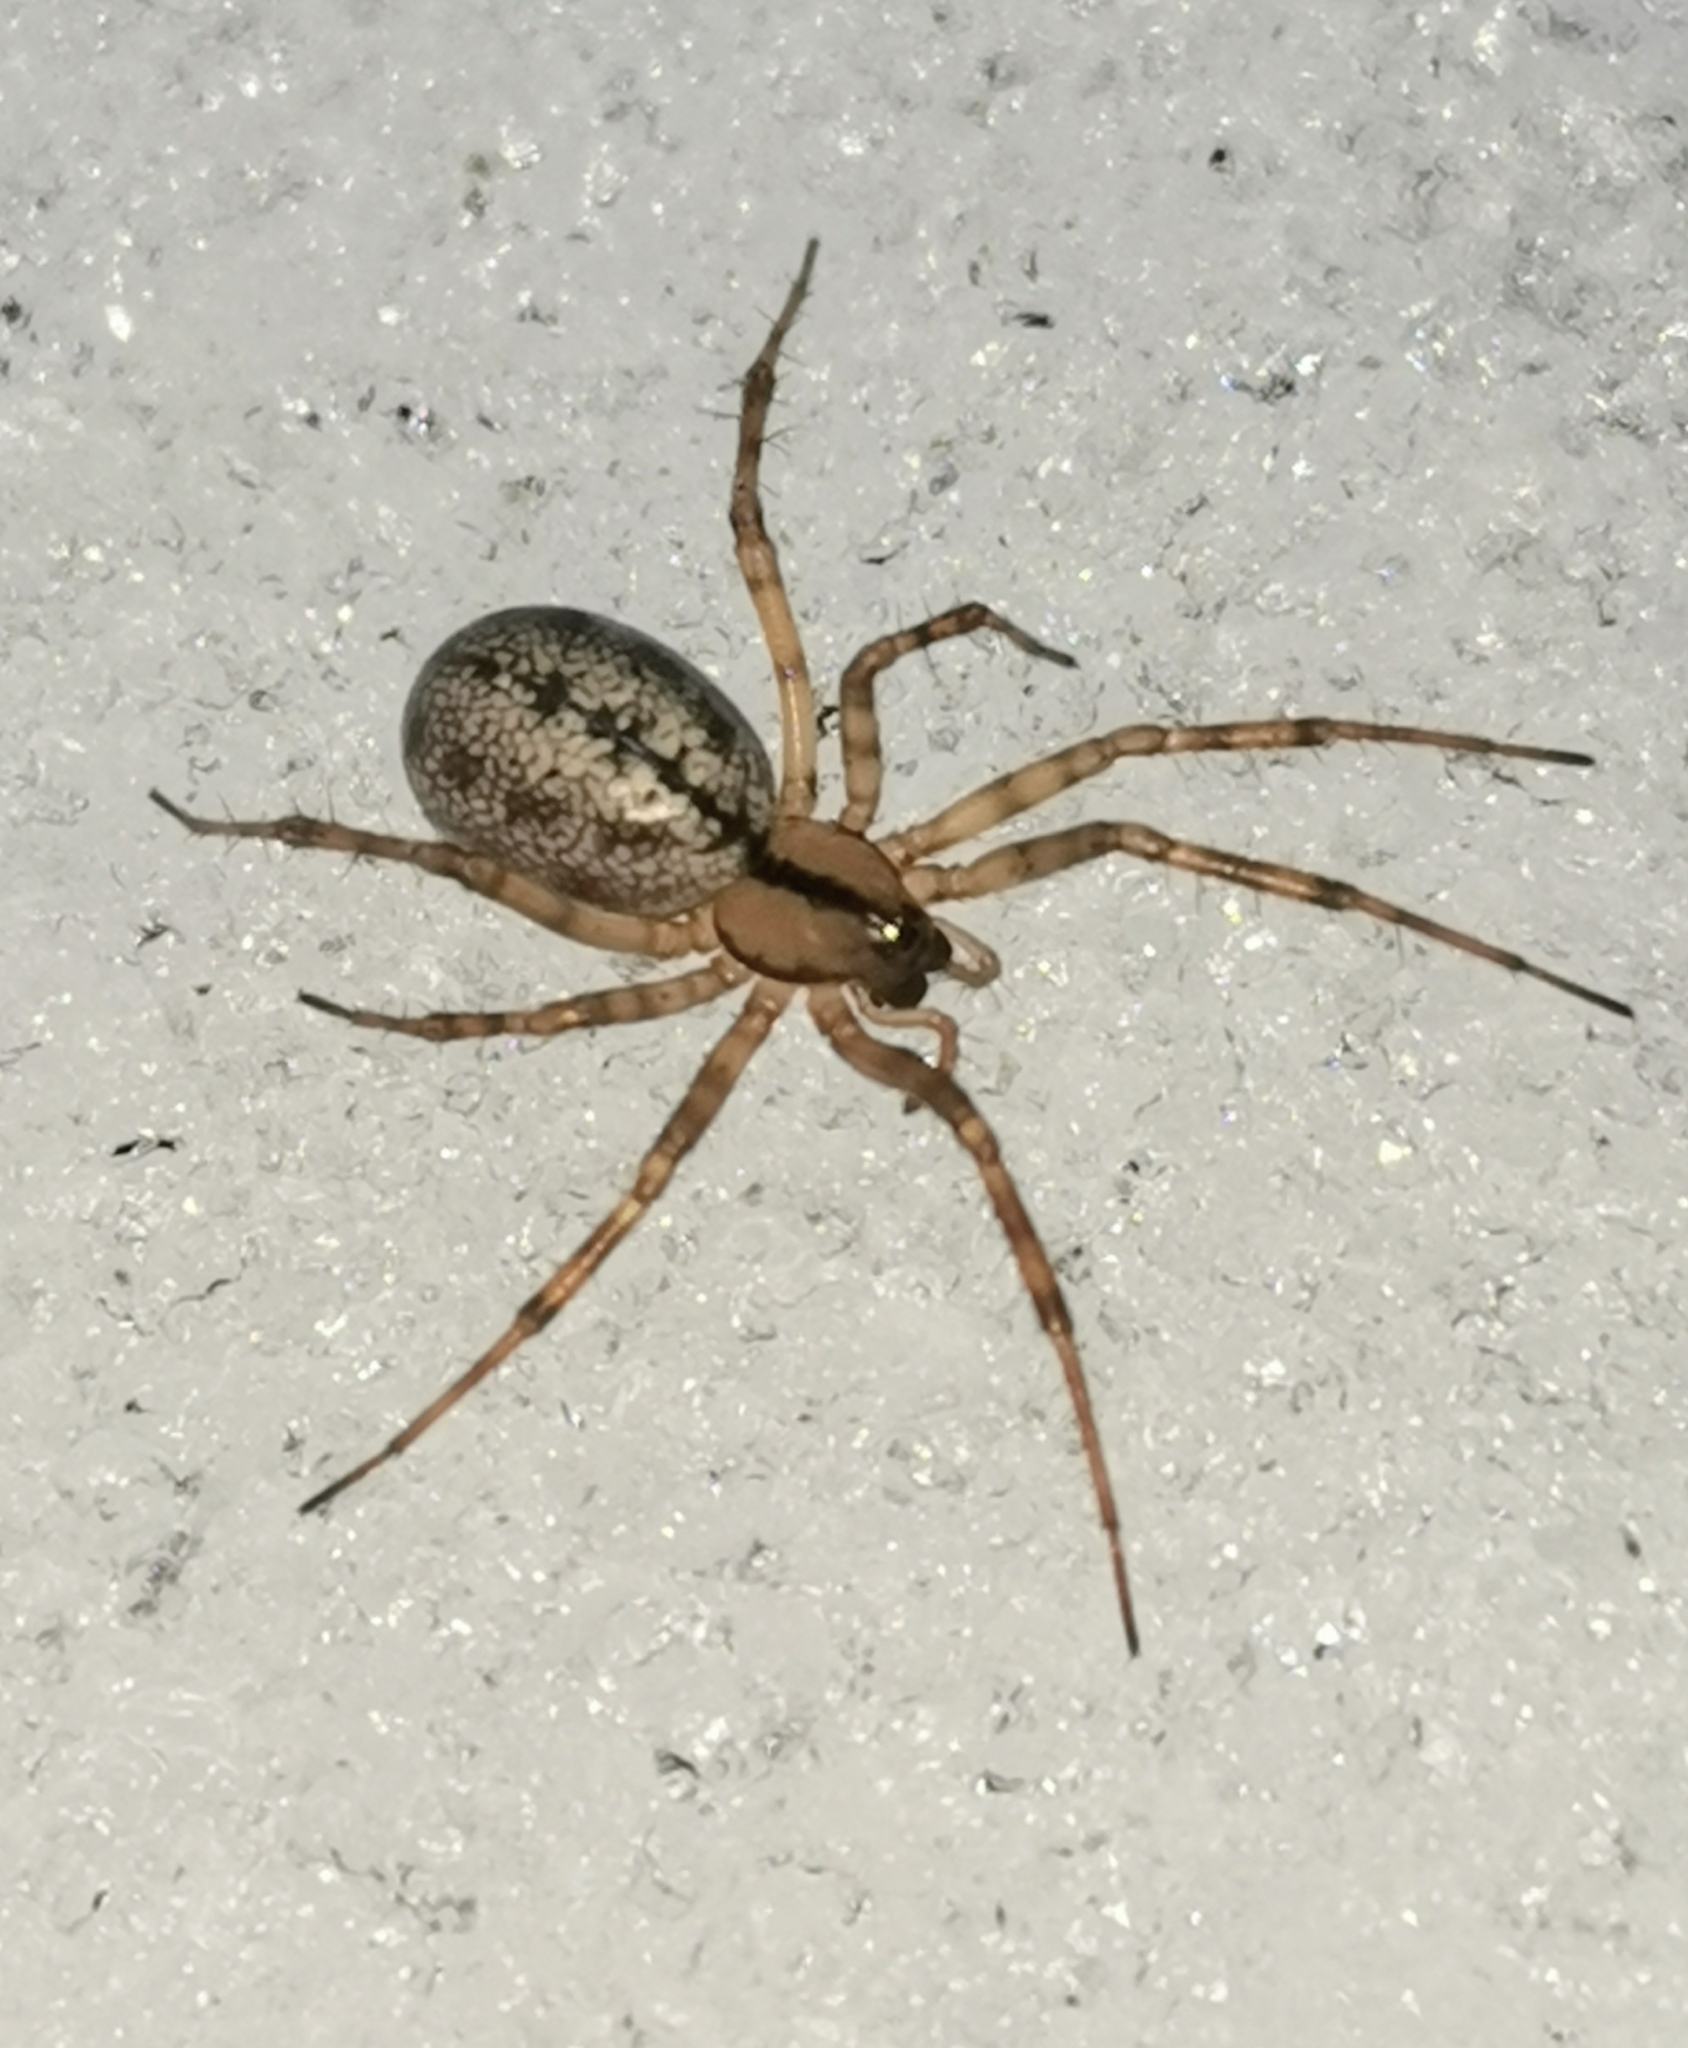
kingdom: Animalia
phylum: Arthropoda
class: Arachnida
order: Araneae
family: Linyphiidae
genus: Stemonyphantes
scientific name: Stemonyphantes lineatus
